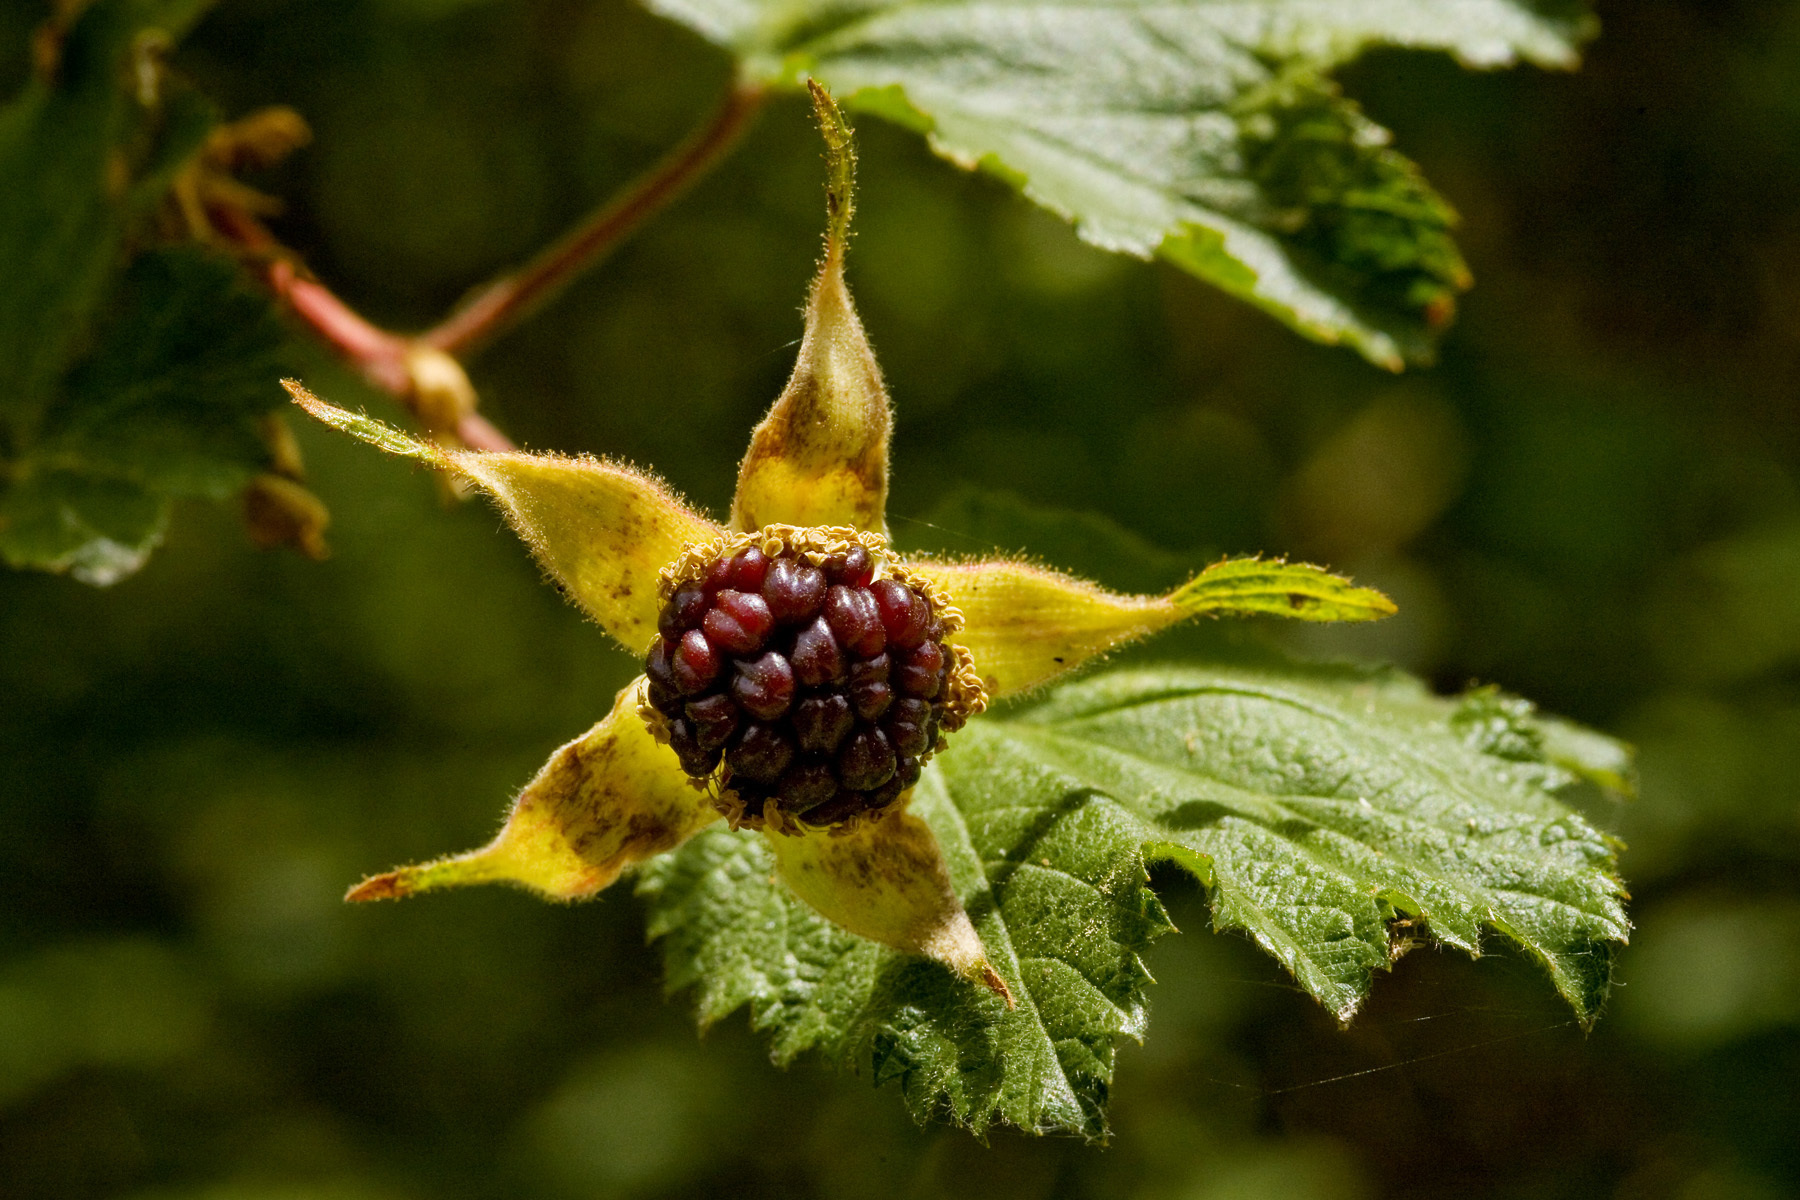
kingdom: Plantae
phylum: Tracheophyta
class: Magnoliopsida
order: Rosales
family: Rosaceae
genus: Rubus
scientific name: Rubus neomexicanus
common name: New mexico raspberry
